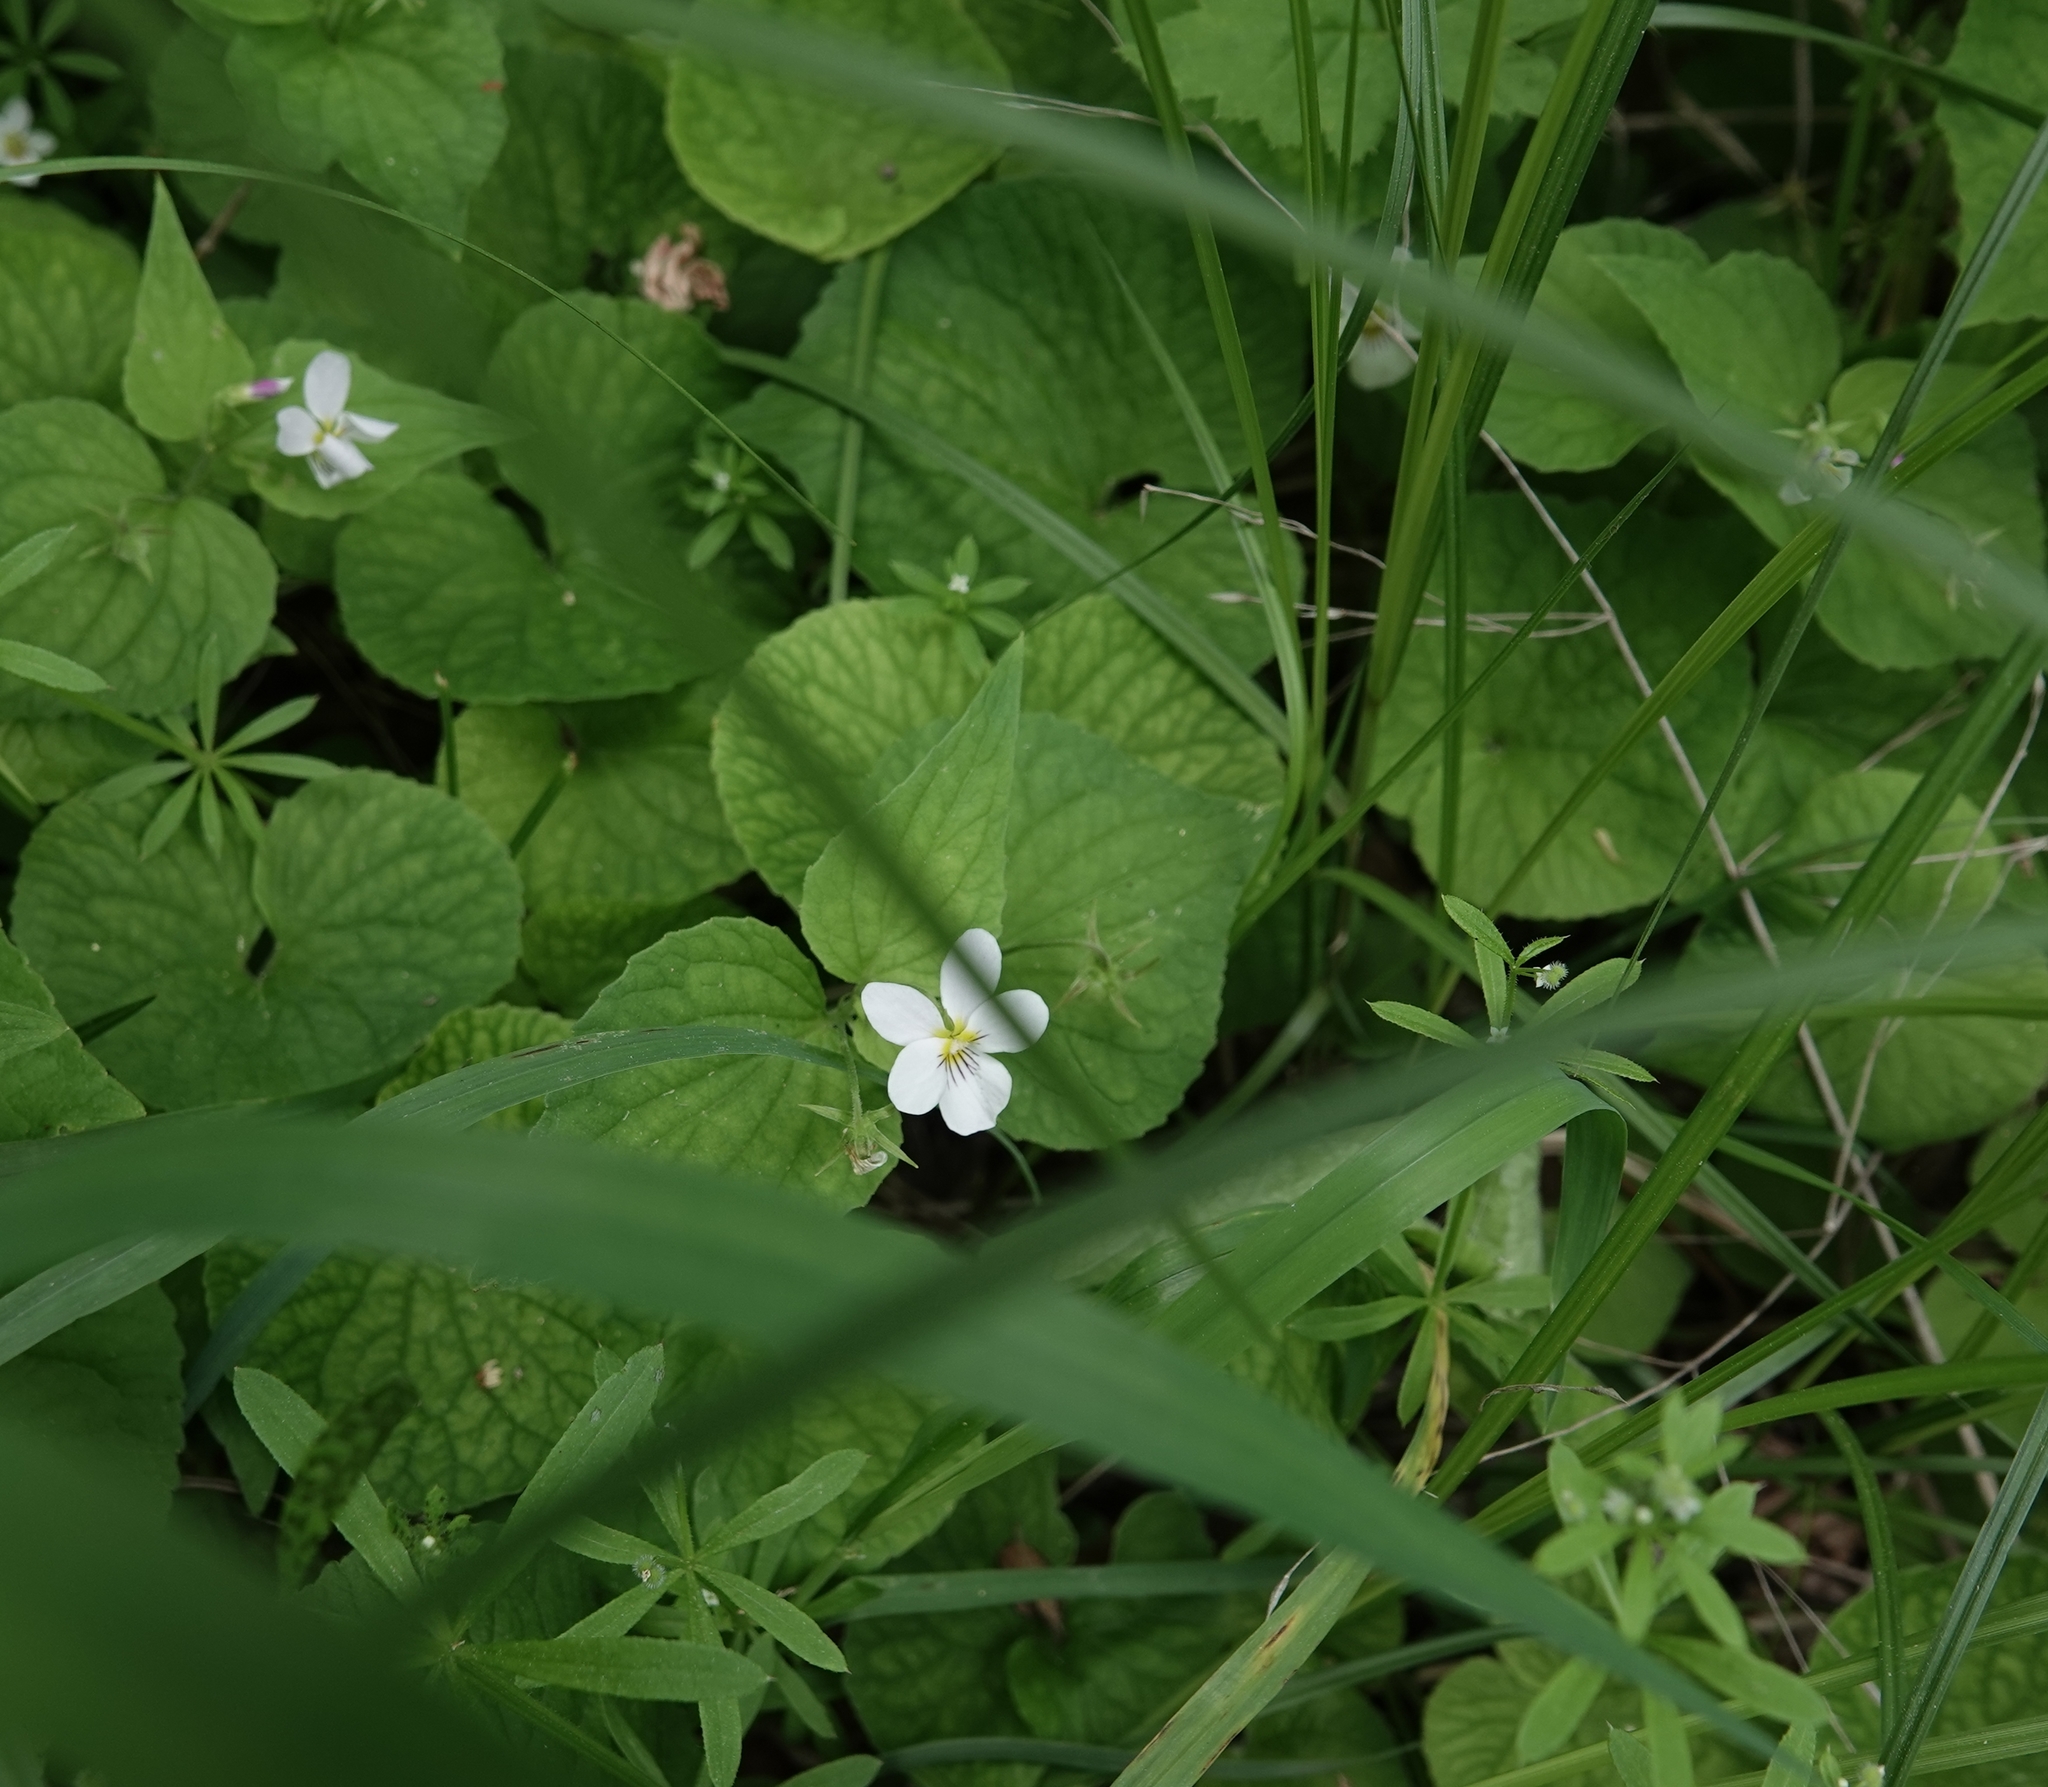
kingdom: Plantae
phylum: Tracheophyta
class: Magnoliopsida
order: Malpighiales
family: Violaceae
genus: Viola
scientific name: Viola canadensis
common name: Canada violet
